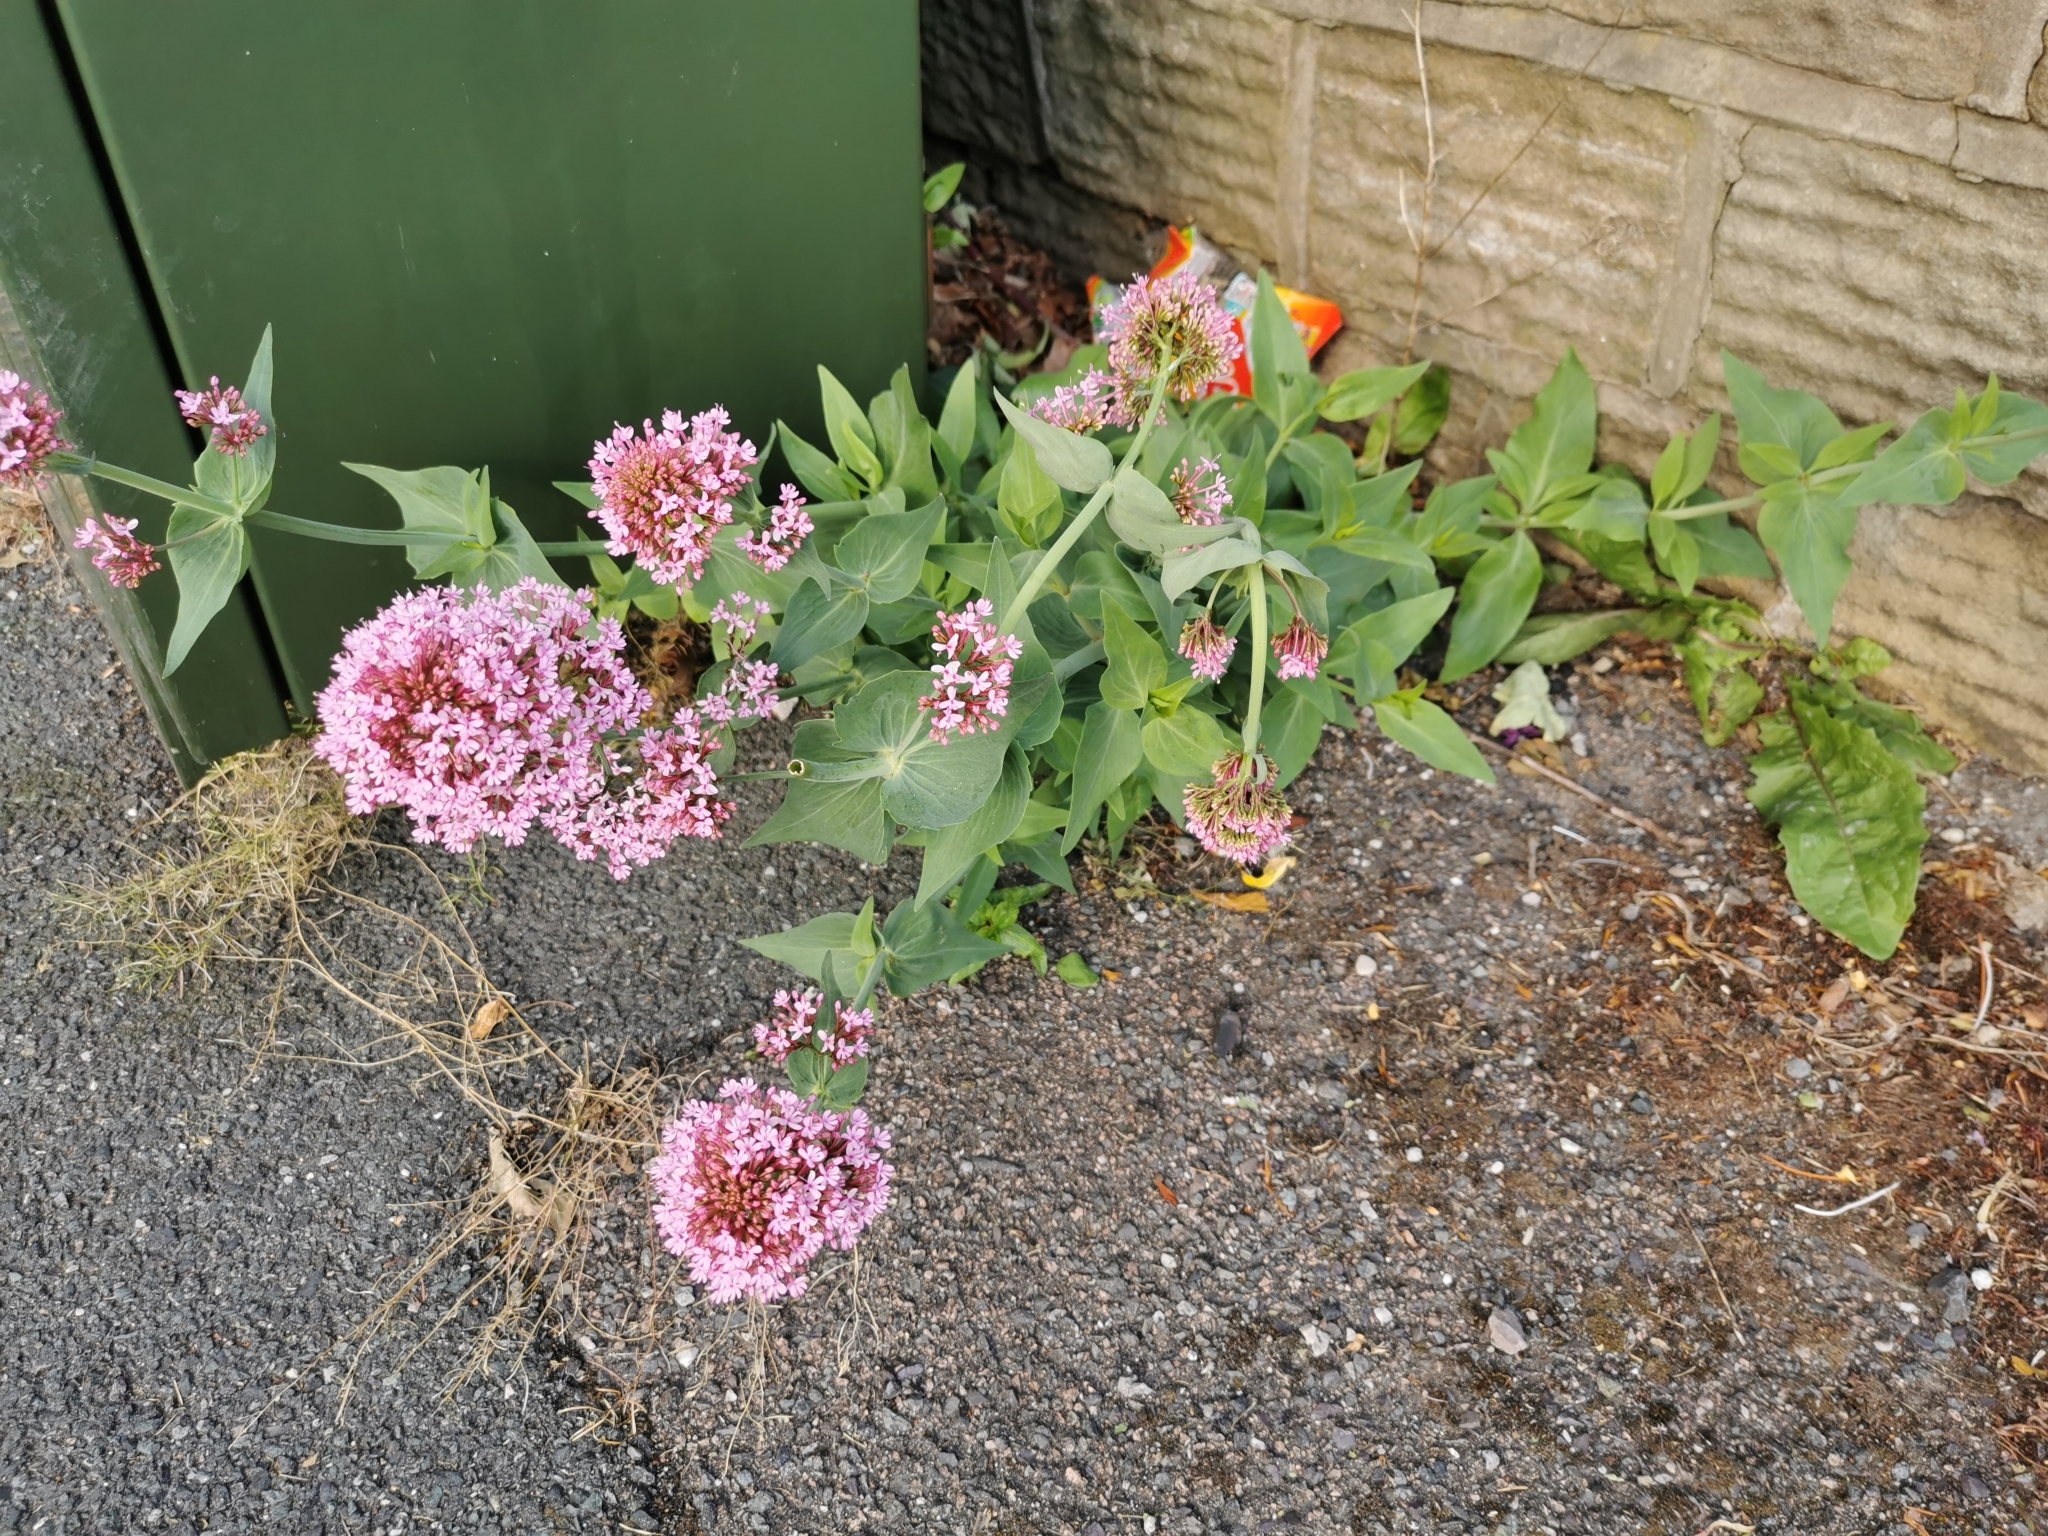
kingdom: Plantae
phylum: Tracheophyta
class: Magnoliopsida
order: Dipsacales
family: Caprifoliaceae
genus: Centranthus
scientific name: Centranthus ruber
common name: Red valerian
